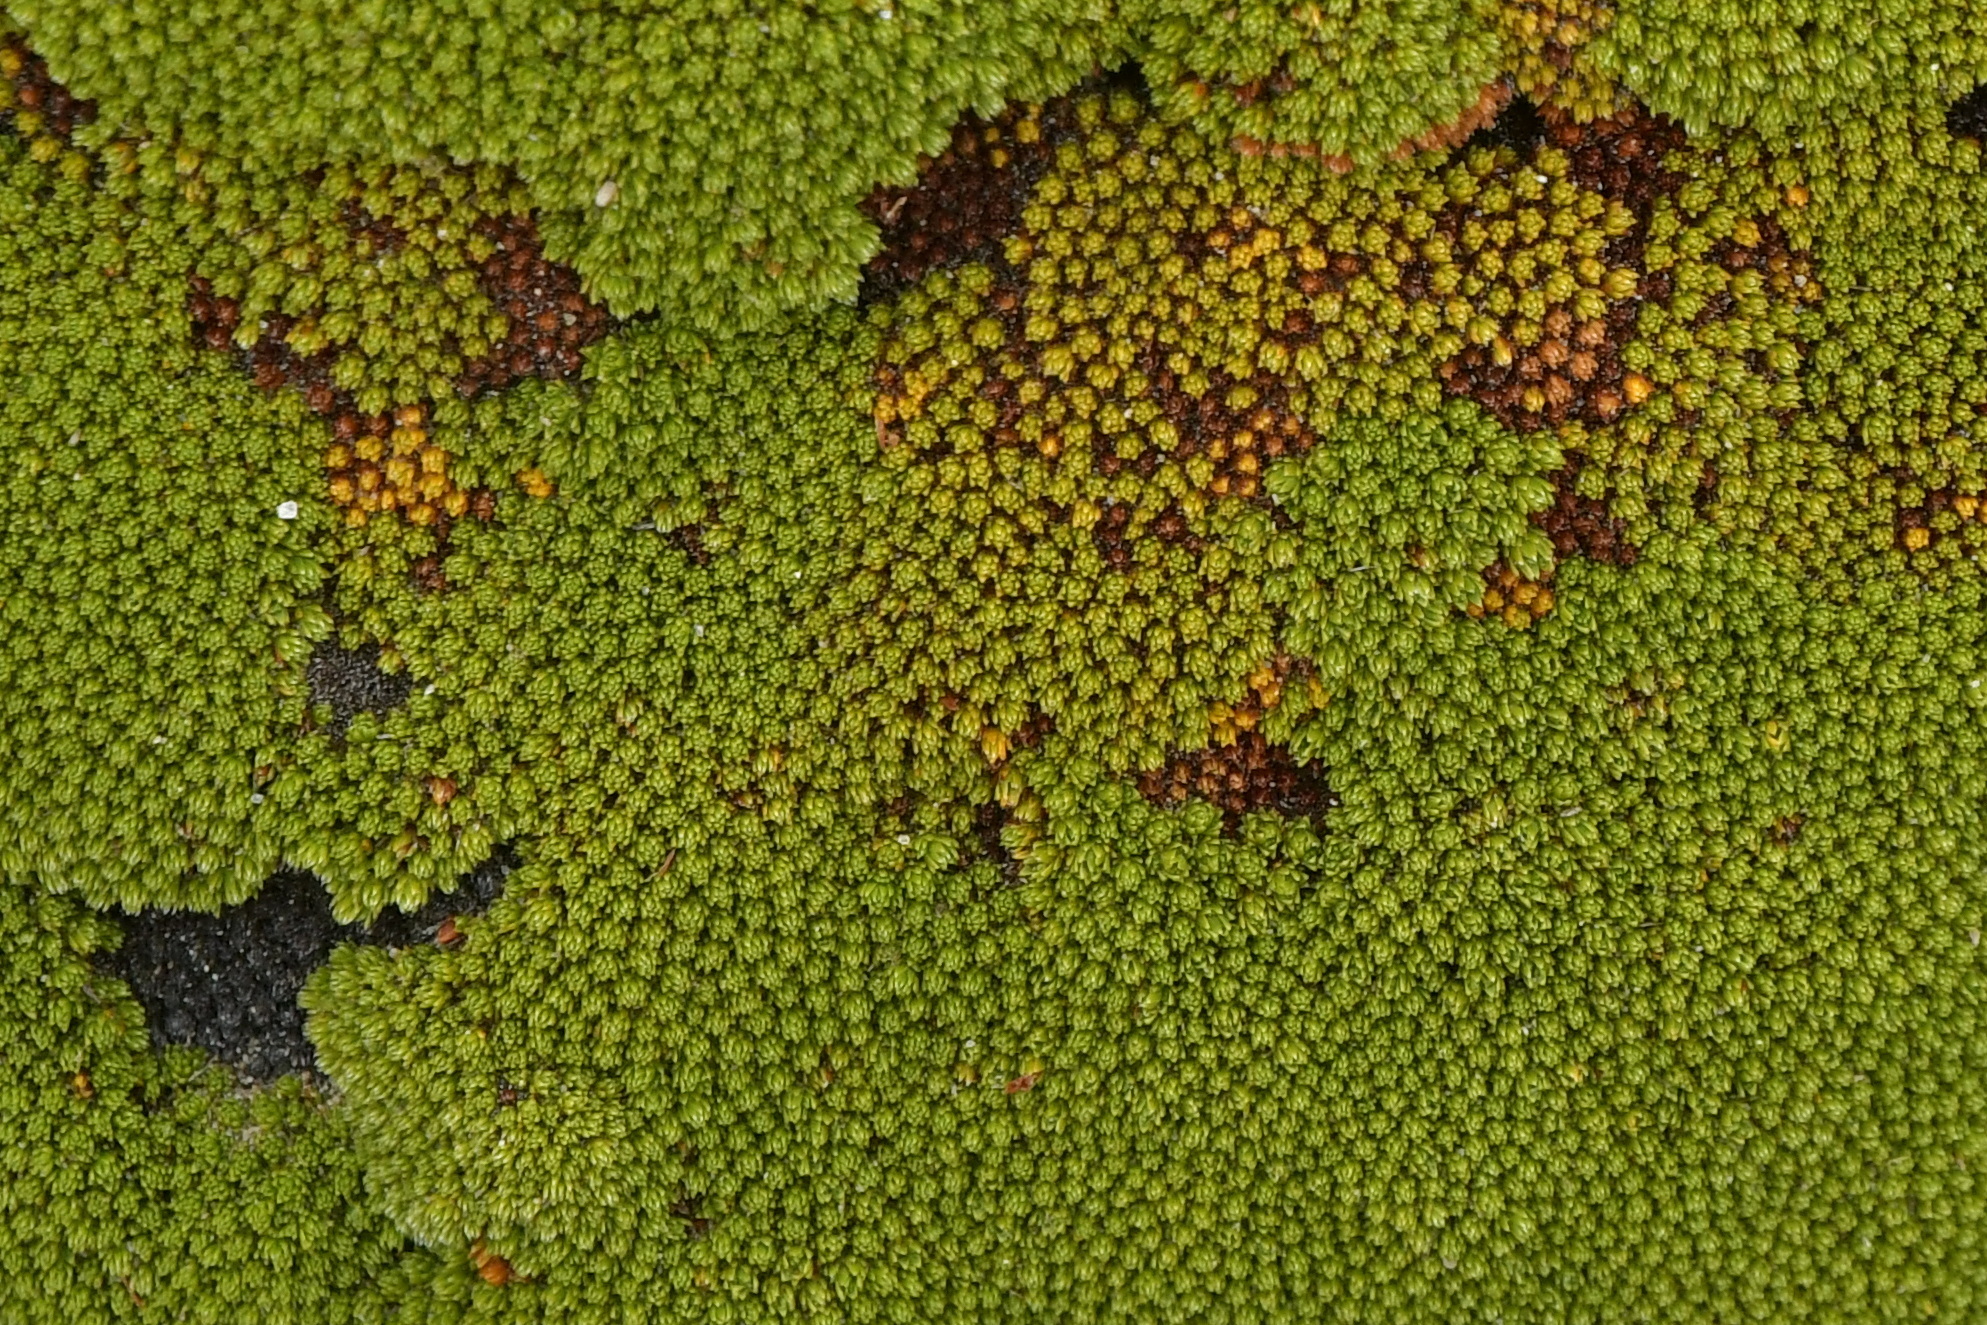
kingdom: Plantae
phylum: Tracheophyta
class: Magnoliopsida
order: Malvales
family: Thymelaeaceae
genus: Kelleria
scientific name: Kelleria childii
